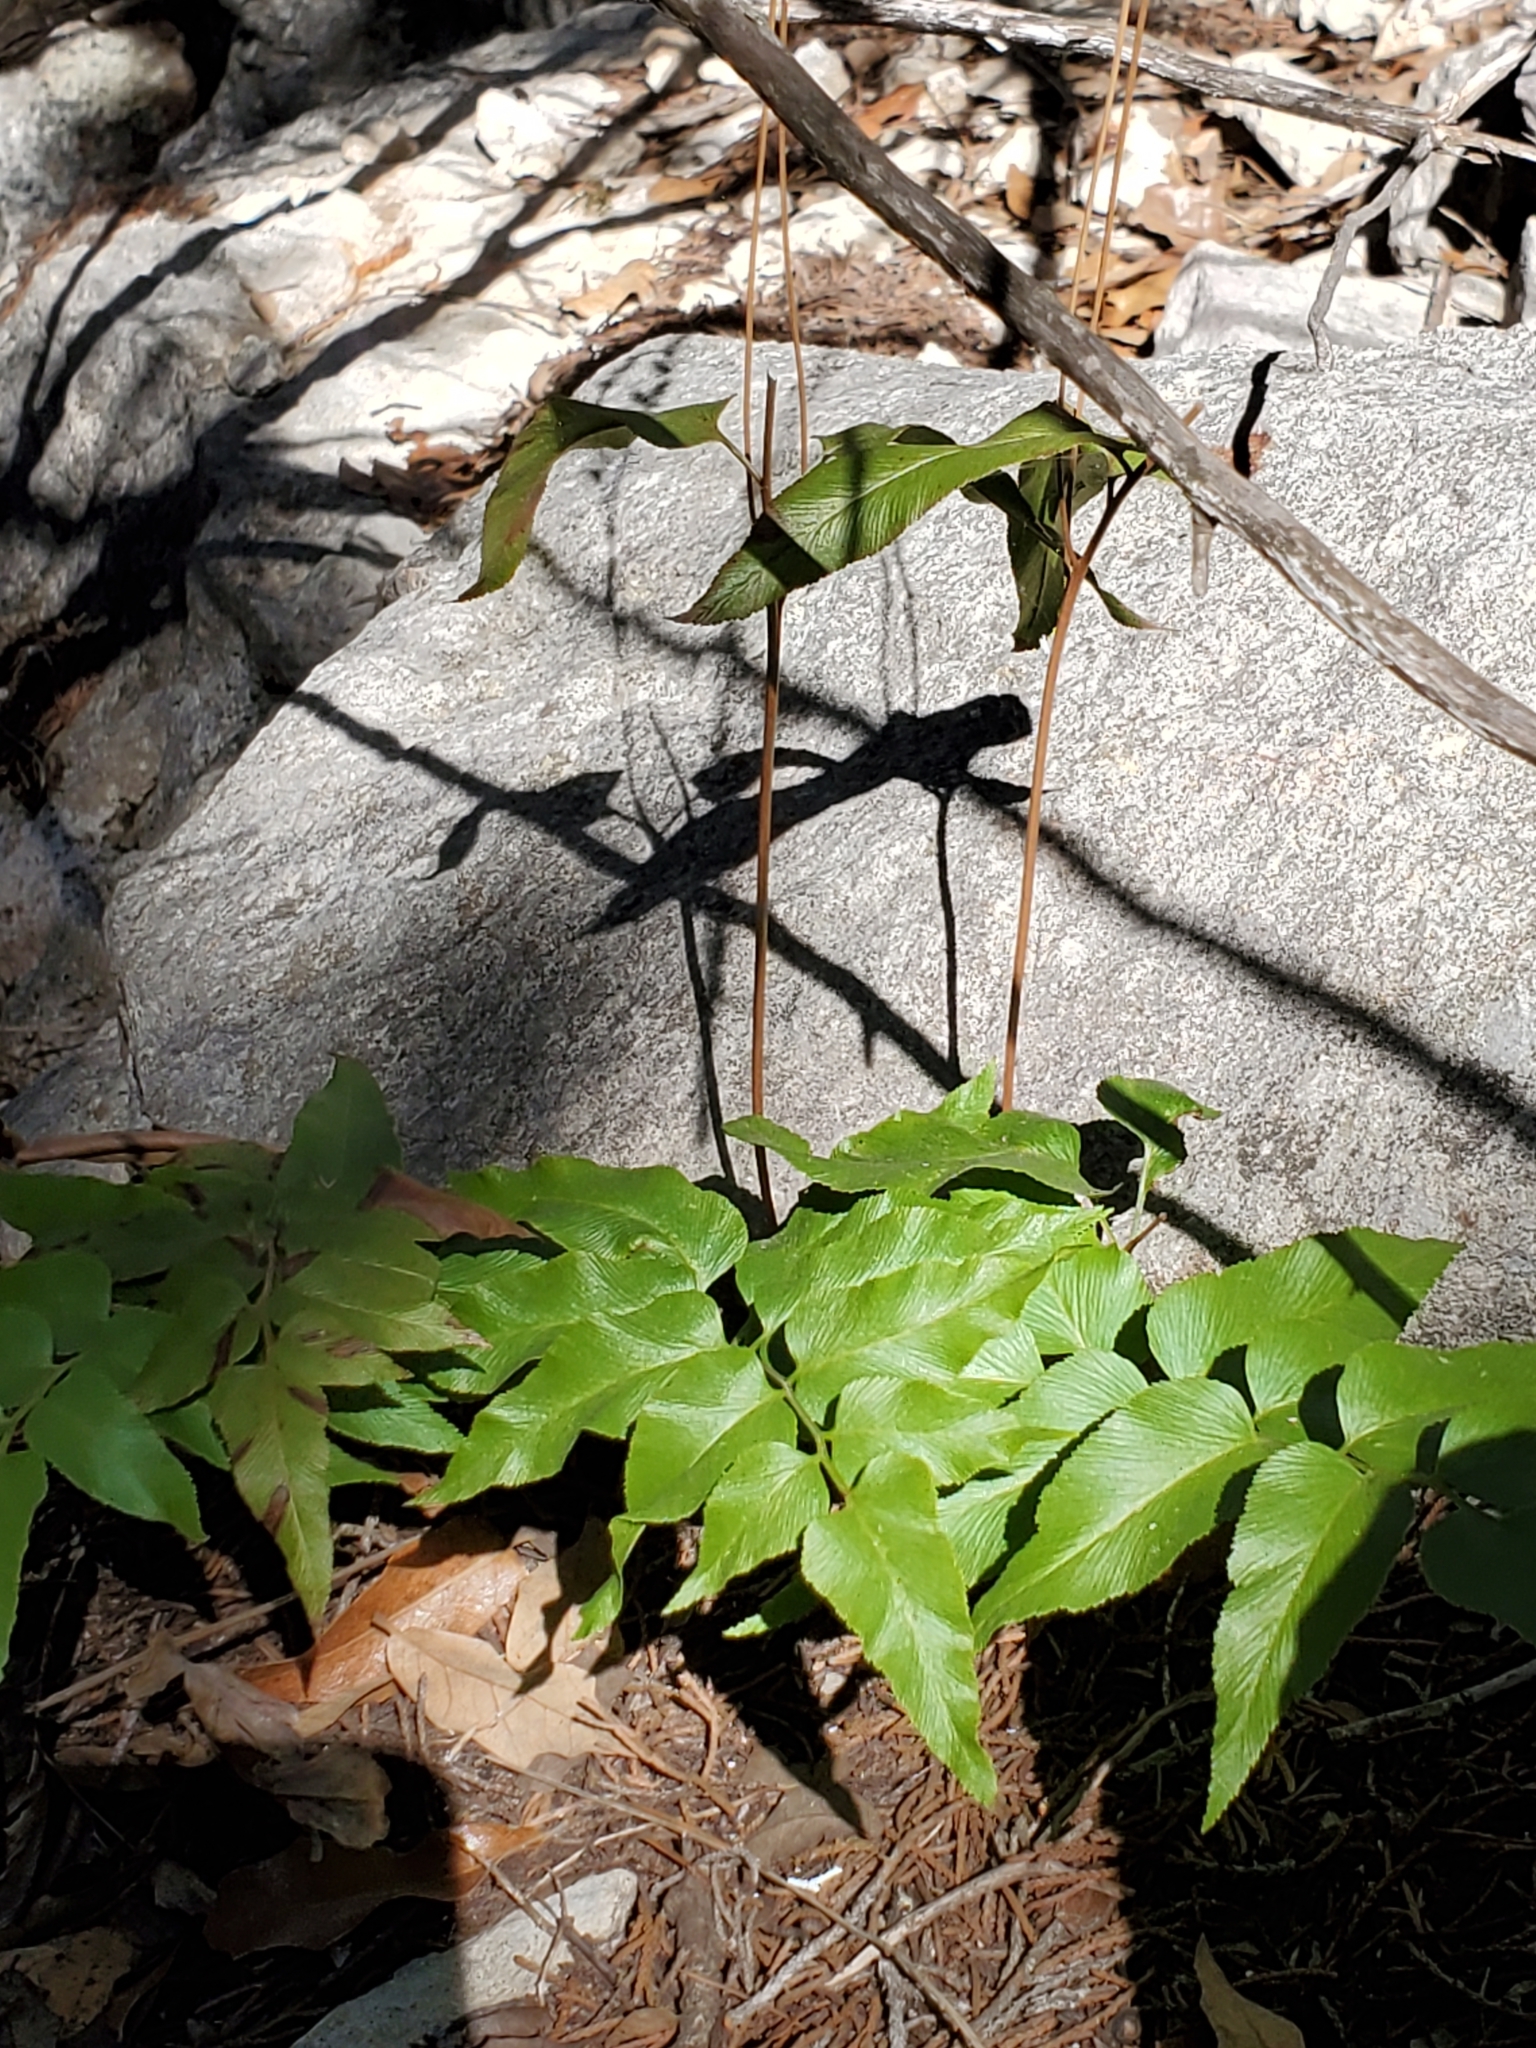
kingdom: Plantae
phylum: Tracheophyta
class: Polypodiopsida
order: Schizaeales
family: Anemiaceae
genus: Anemia
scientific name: Anemia mexicana
